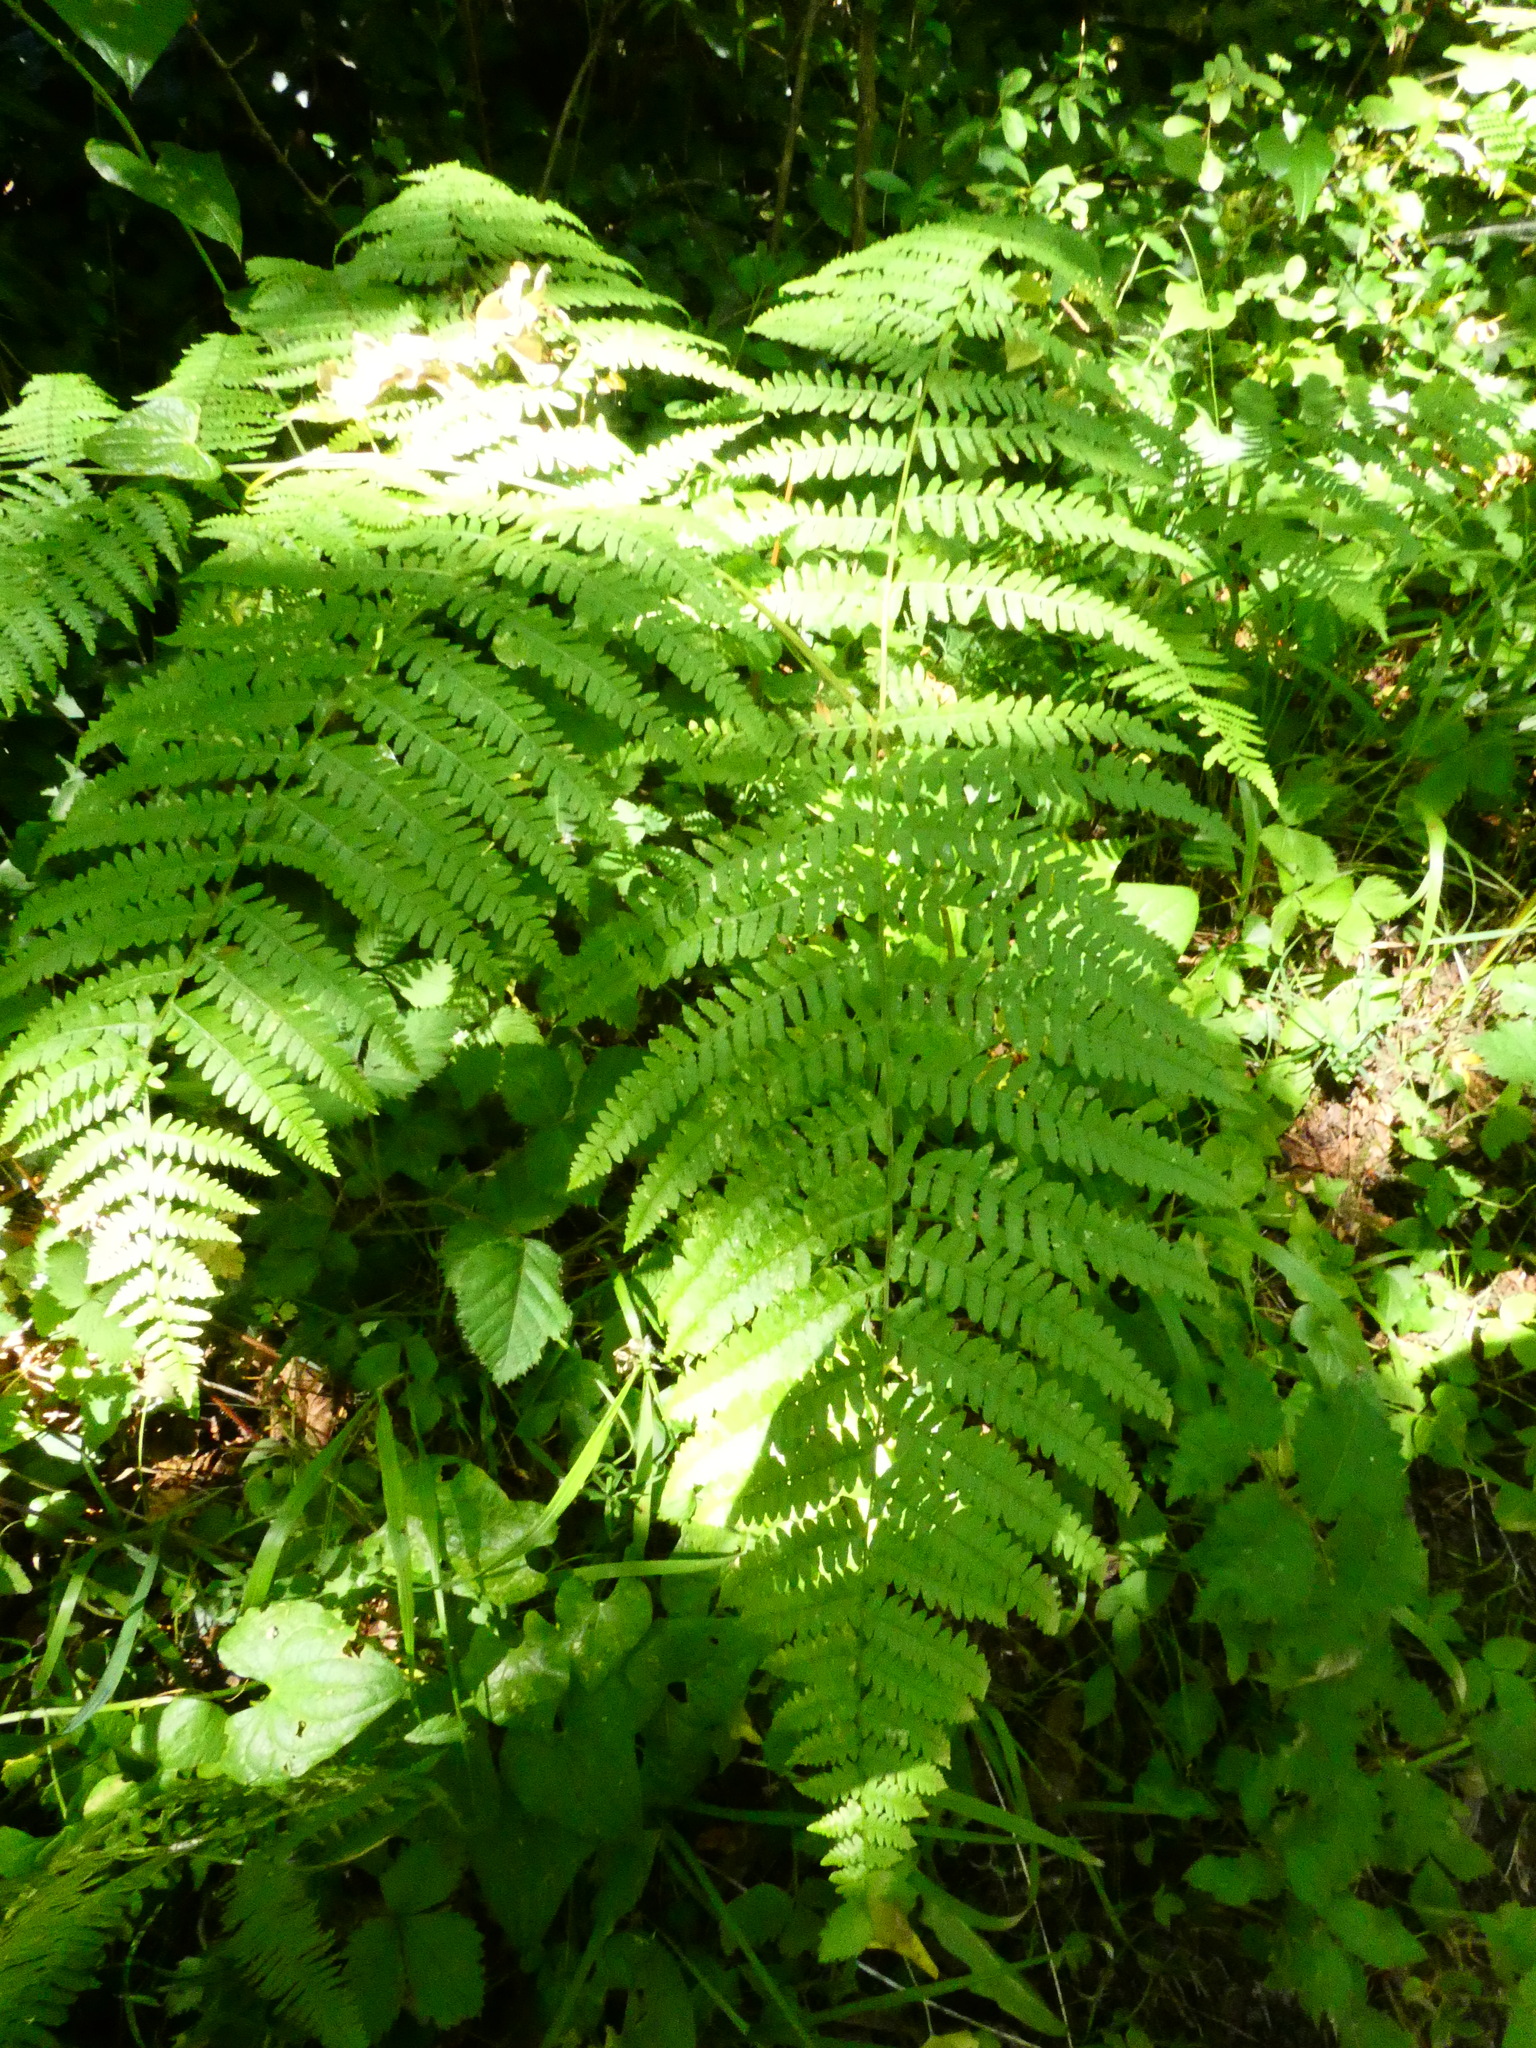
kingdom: Plantae
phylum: Tracheophyta
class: Polypodiopsida
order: Polypodiales
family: Dennstaedtiaceae
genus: Pteridium
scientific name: Pteridium aquilinum
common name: Bracken
